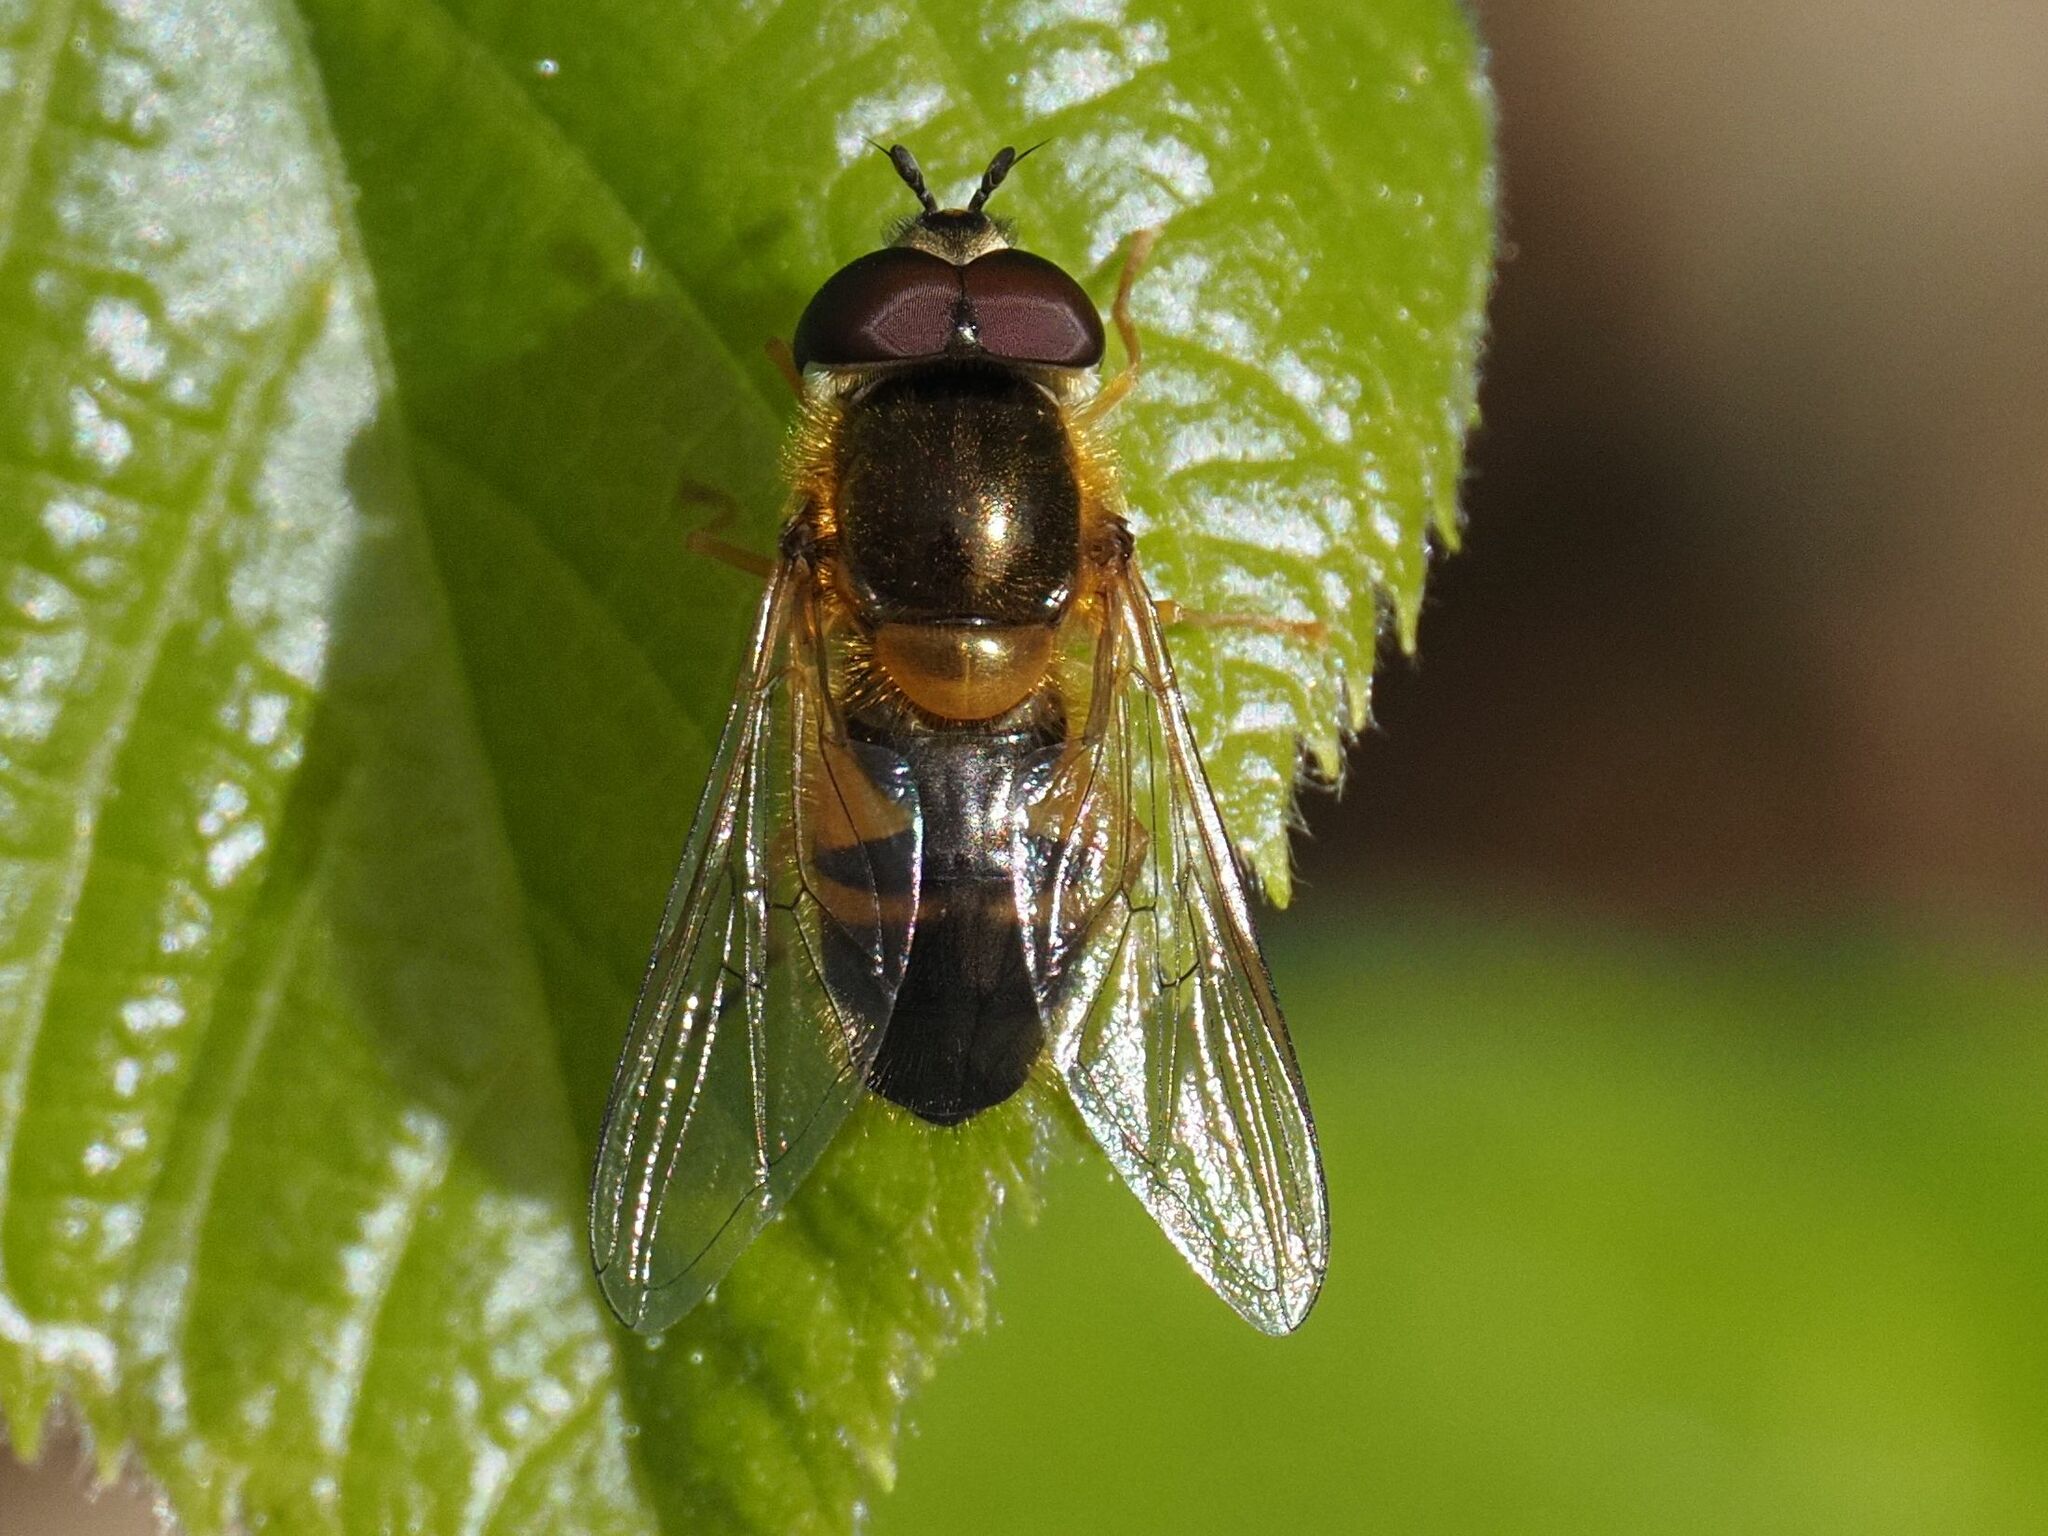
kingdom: Animalia
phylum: Arthropoda
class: Insecta
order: Diptera
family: Syrphidae
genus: Epistrophe
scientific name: Epistrophe eligans
